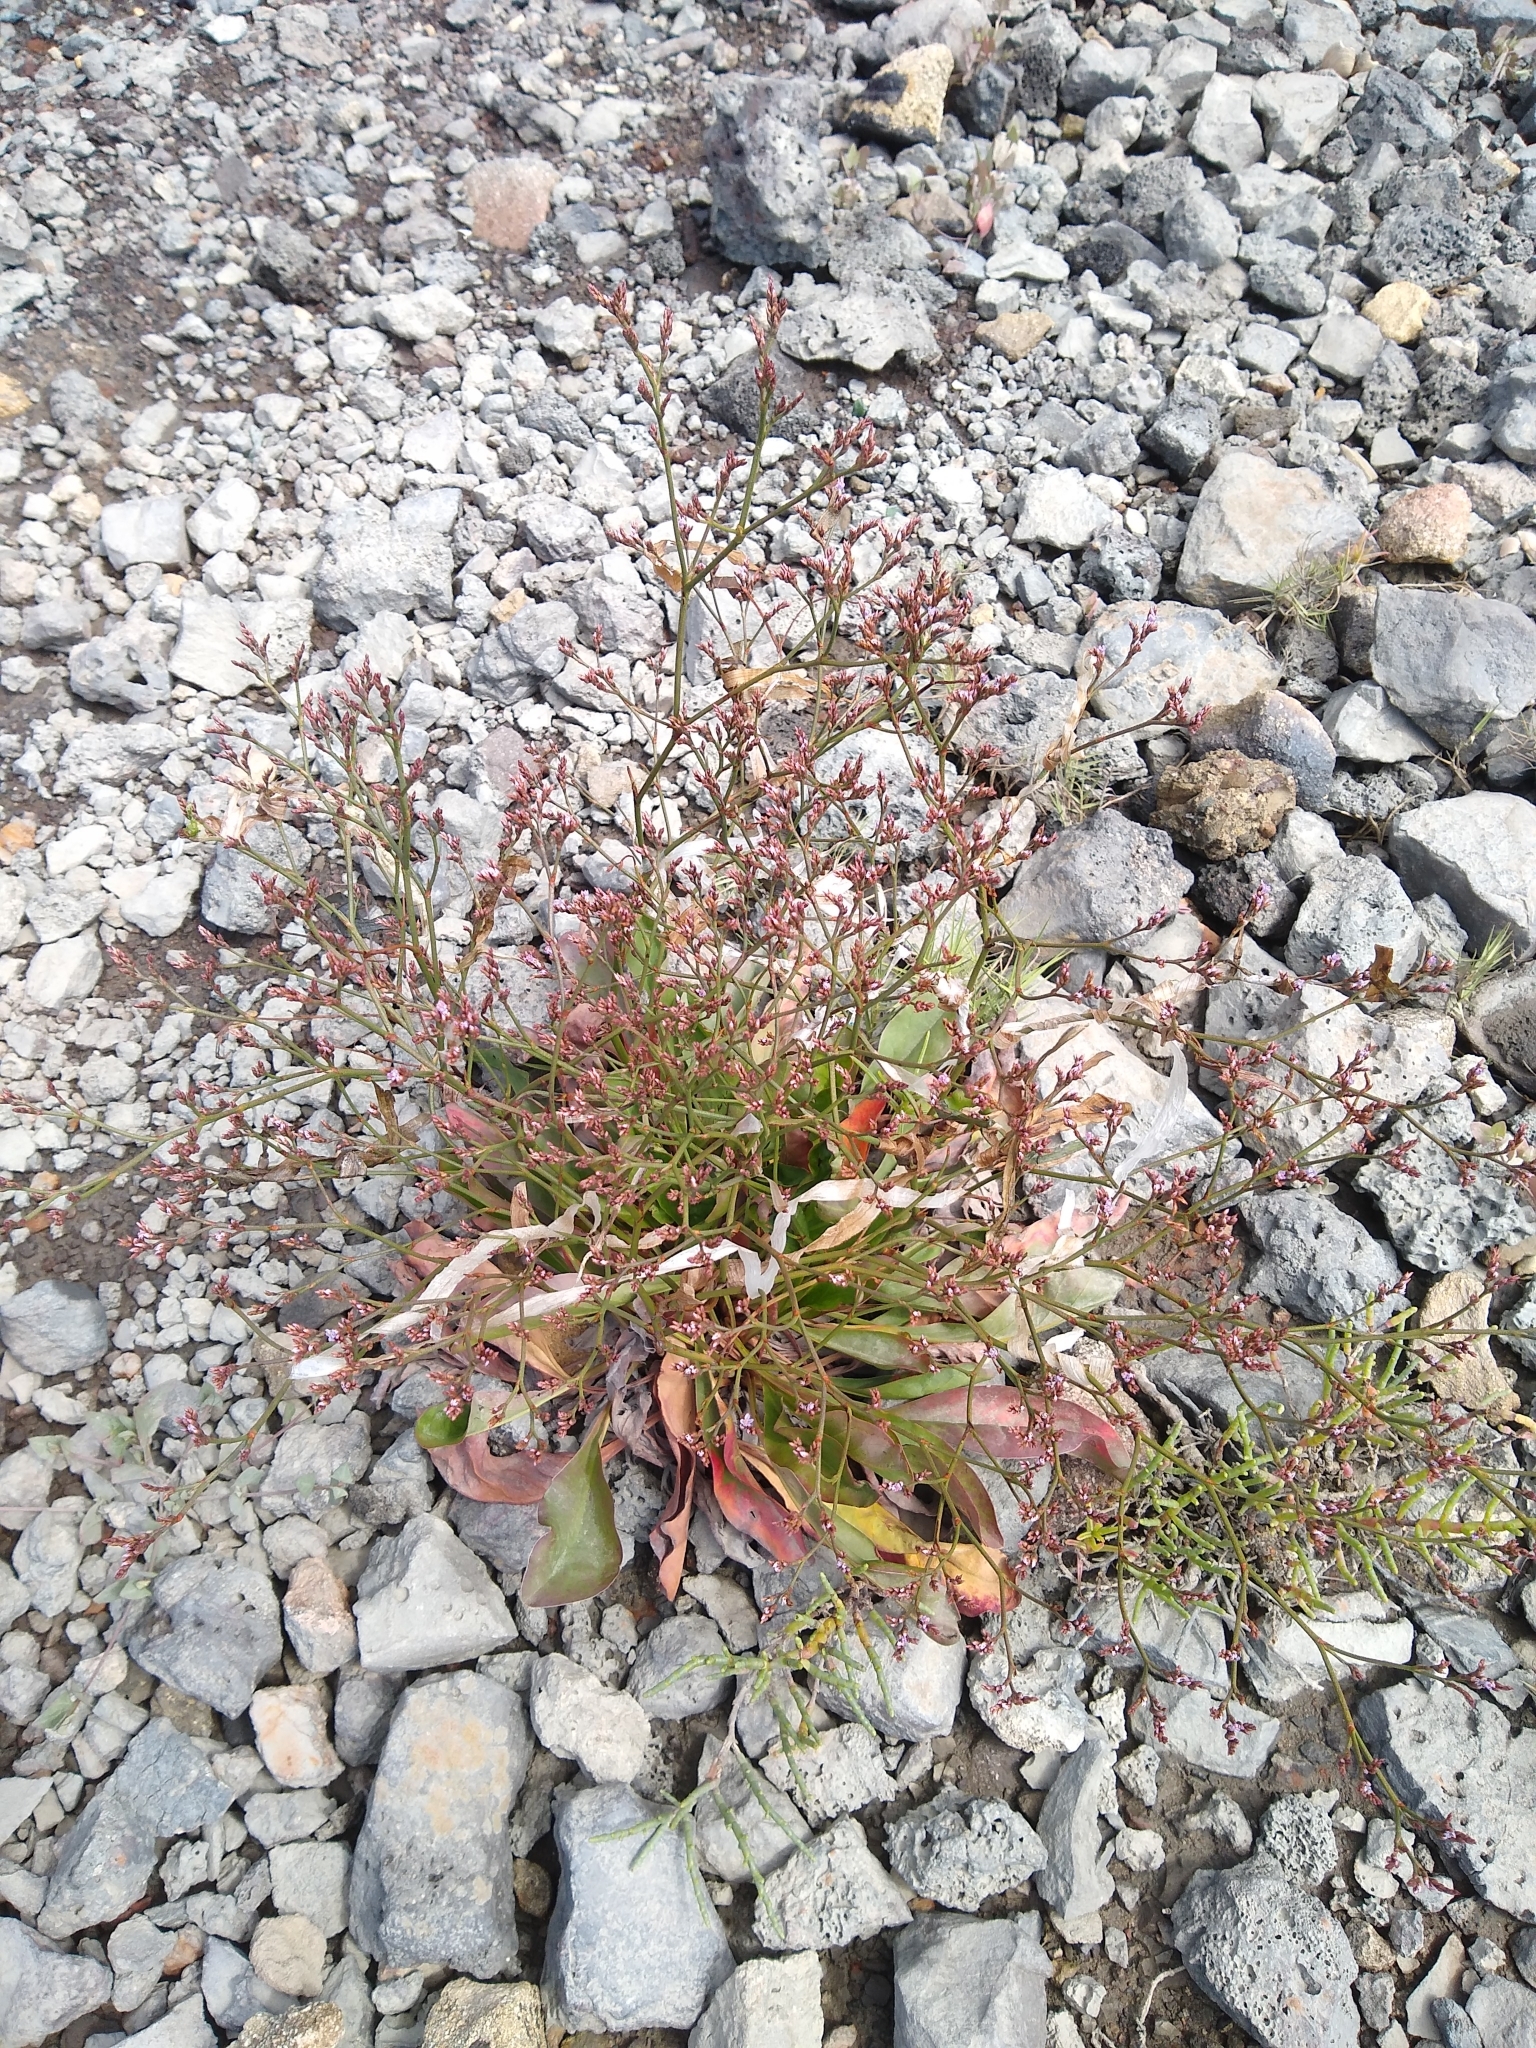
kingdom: Plantae
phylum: Tracheophyta
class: Magnoliopsida
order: Caryophyllales
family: Plumbaginaceae
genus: Limonium
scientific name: Limonium californicum
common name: Marsh-rosemary
